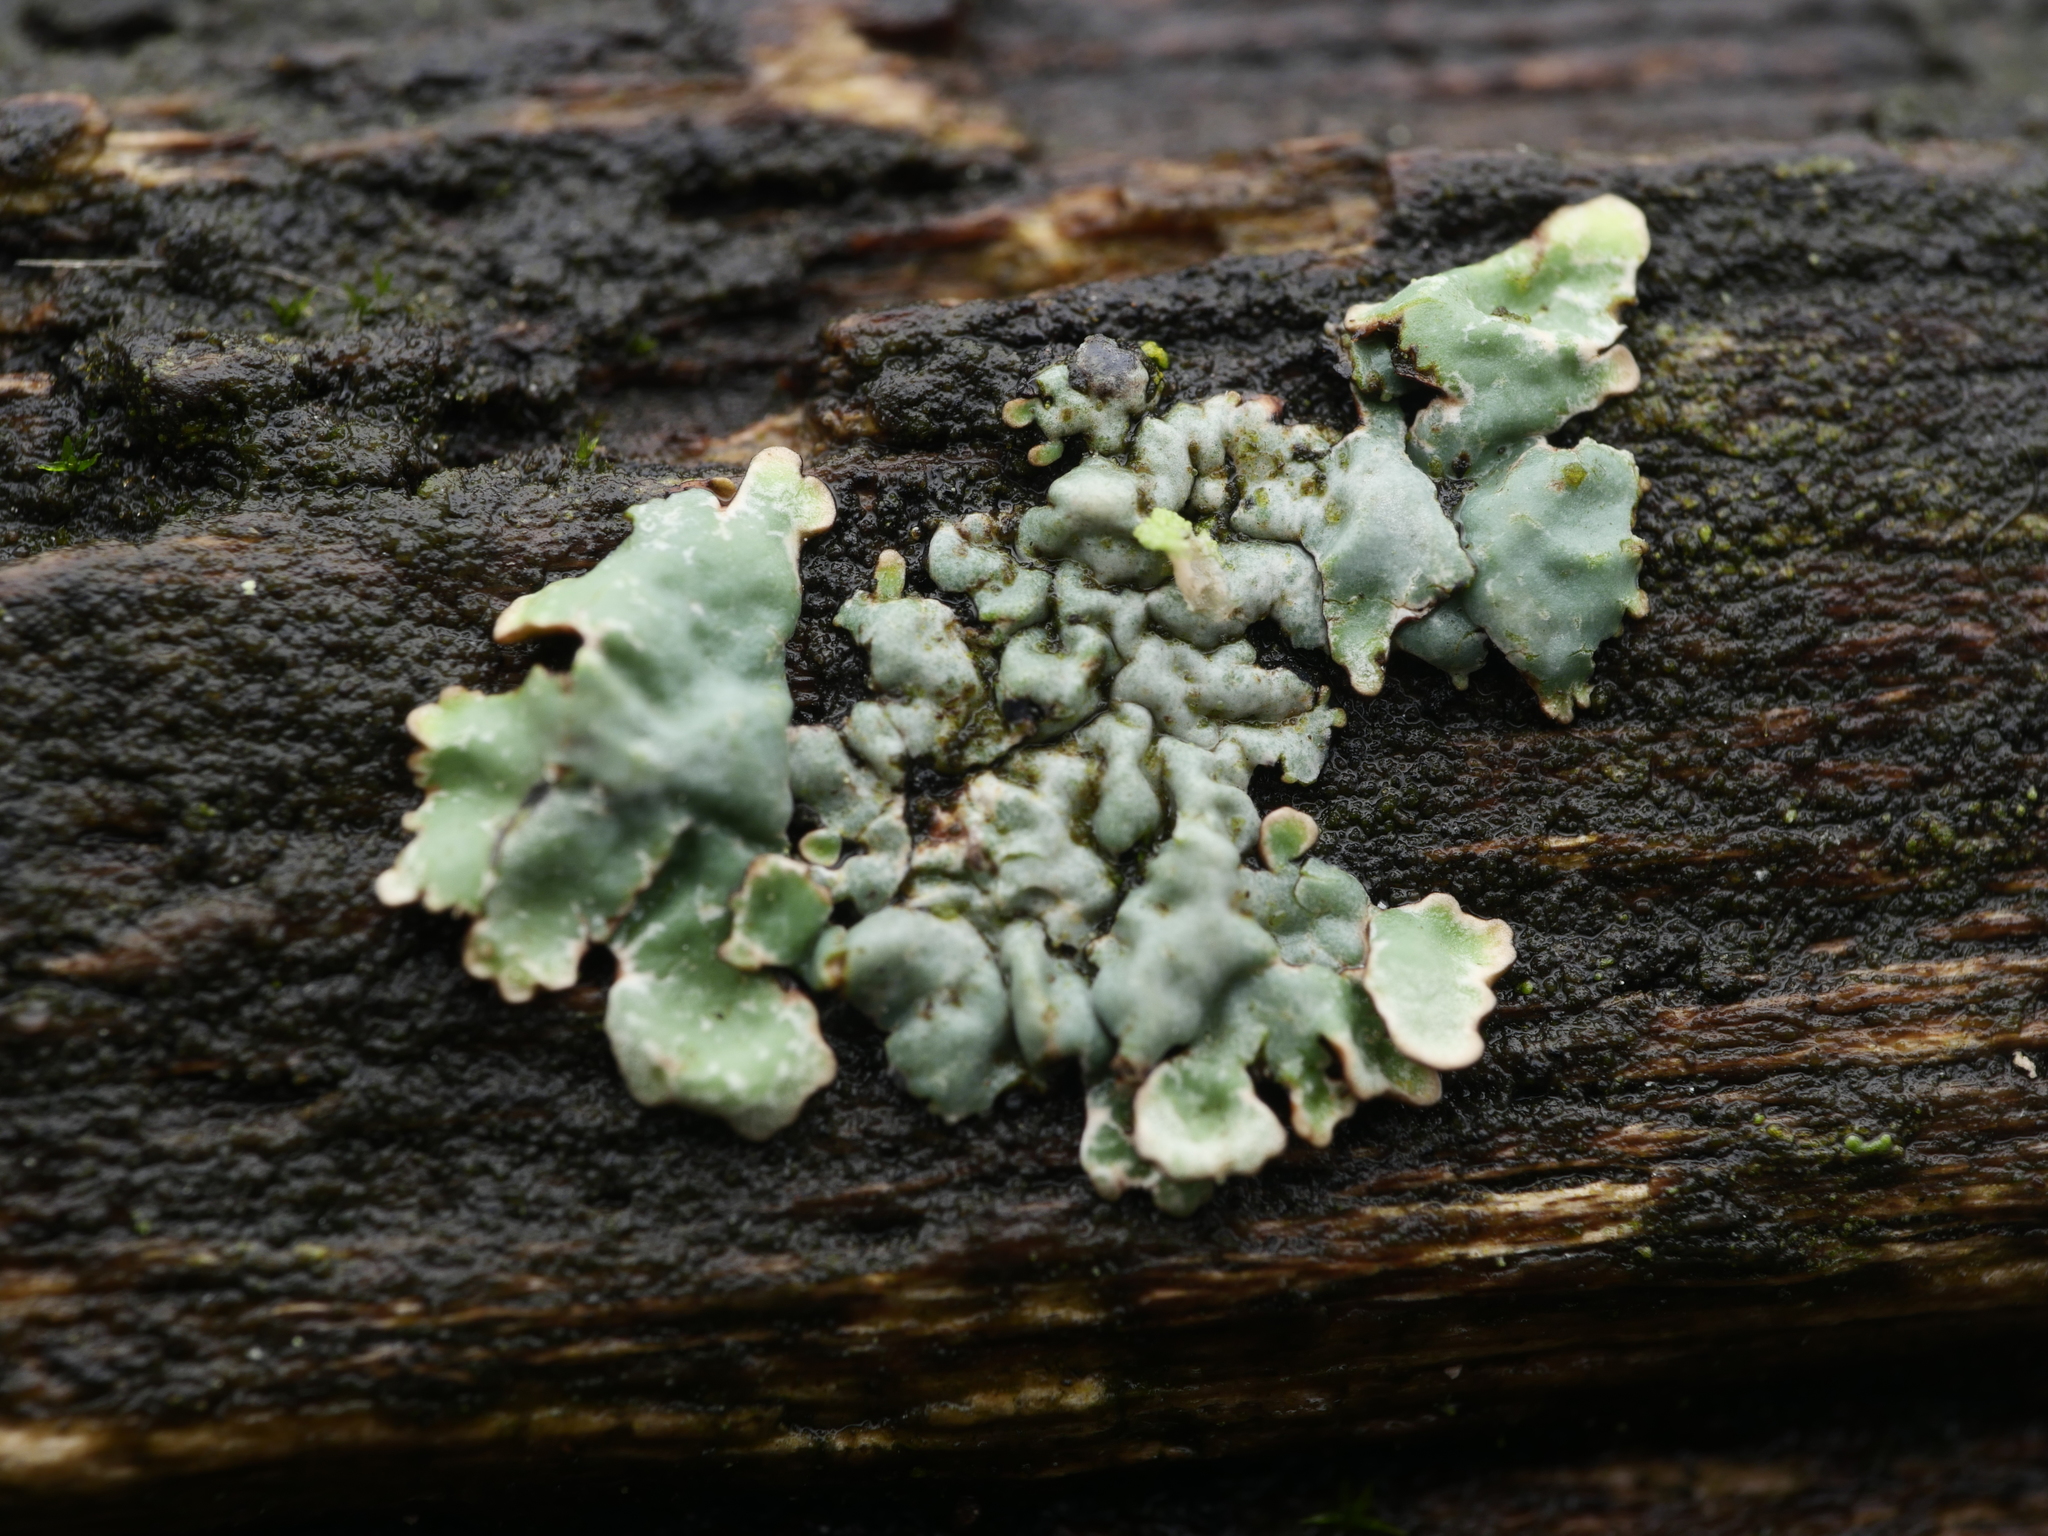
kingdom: Fungi
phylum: Ascomycota
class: Lecanoromycetes
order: Lecanorales
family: Parmeliaceae
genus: Parmelia
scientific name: Parmelia sulcata
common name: Netted shield lichen
